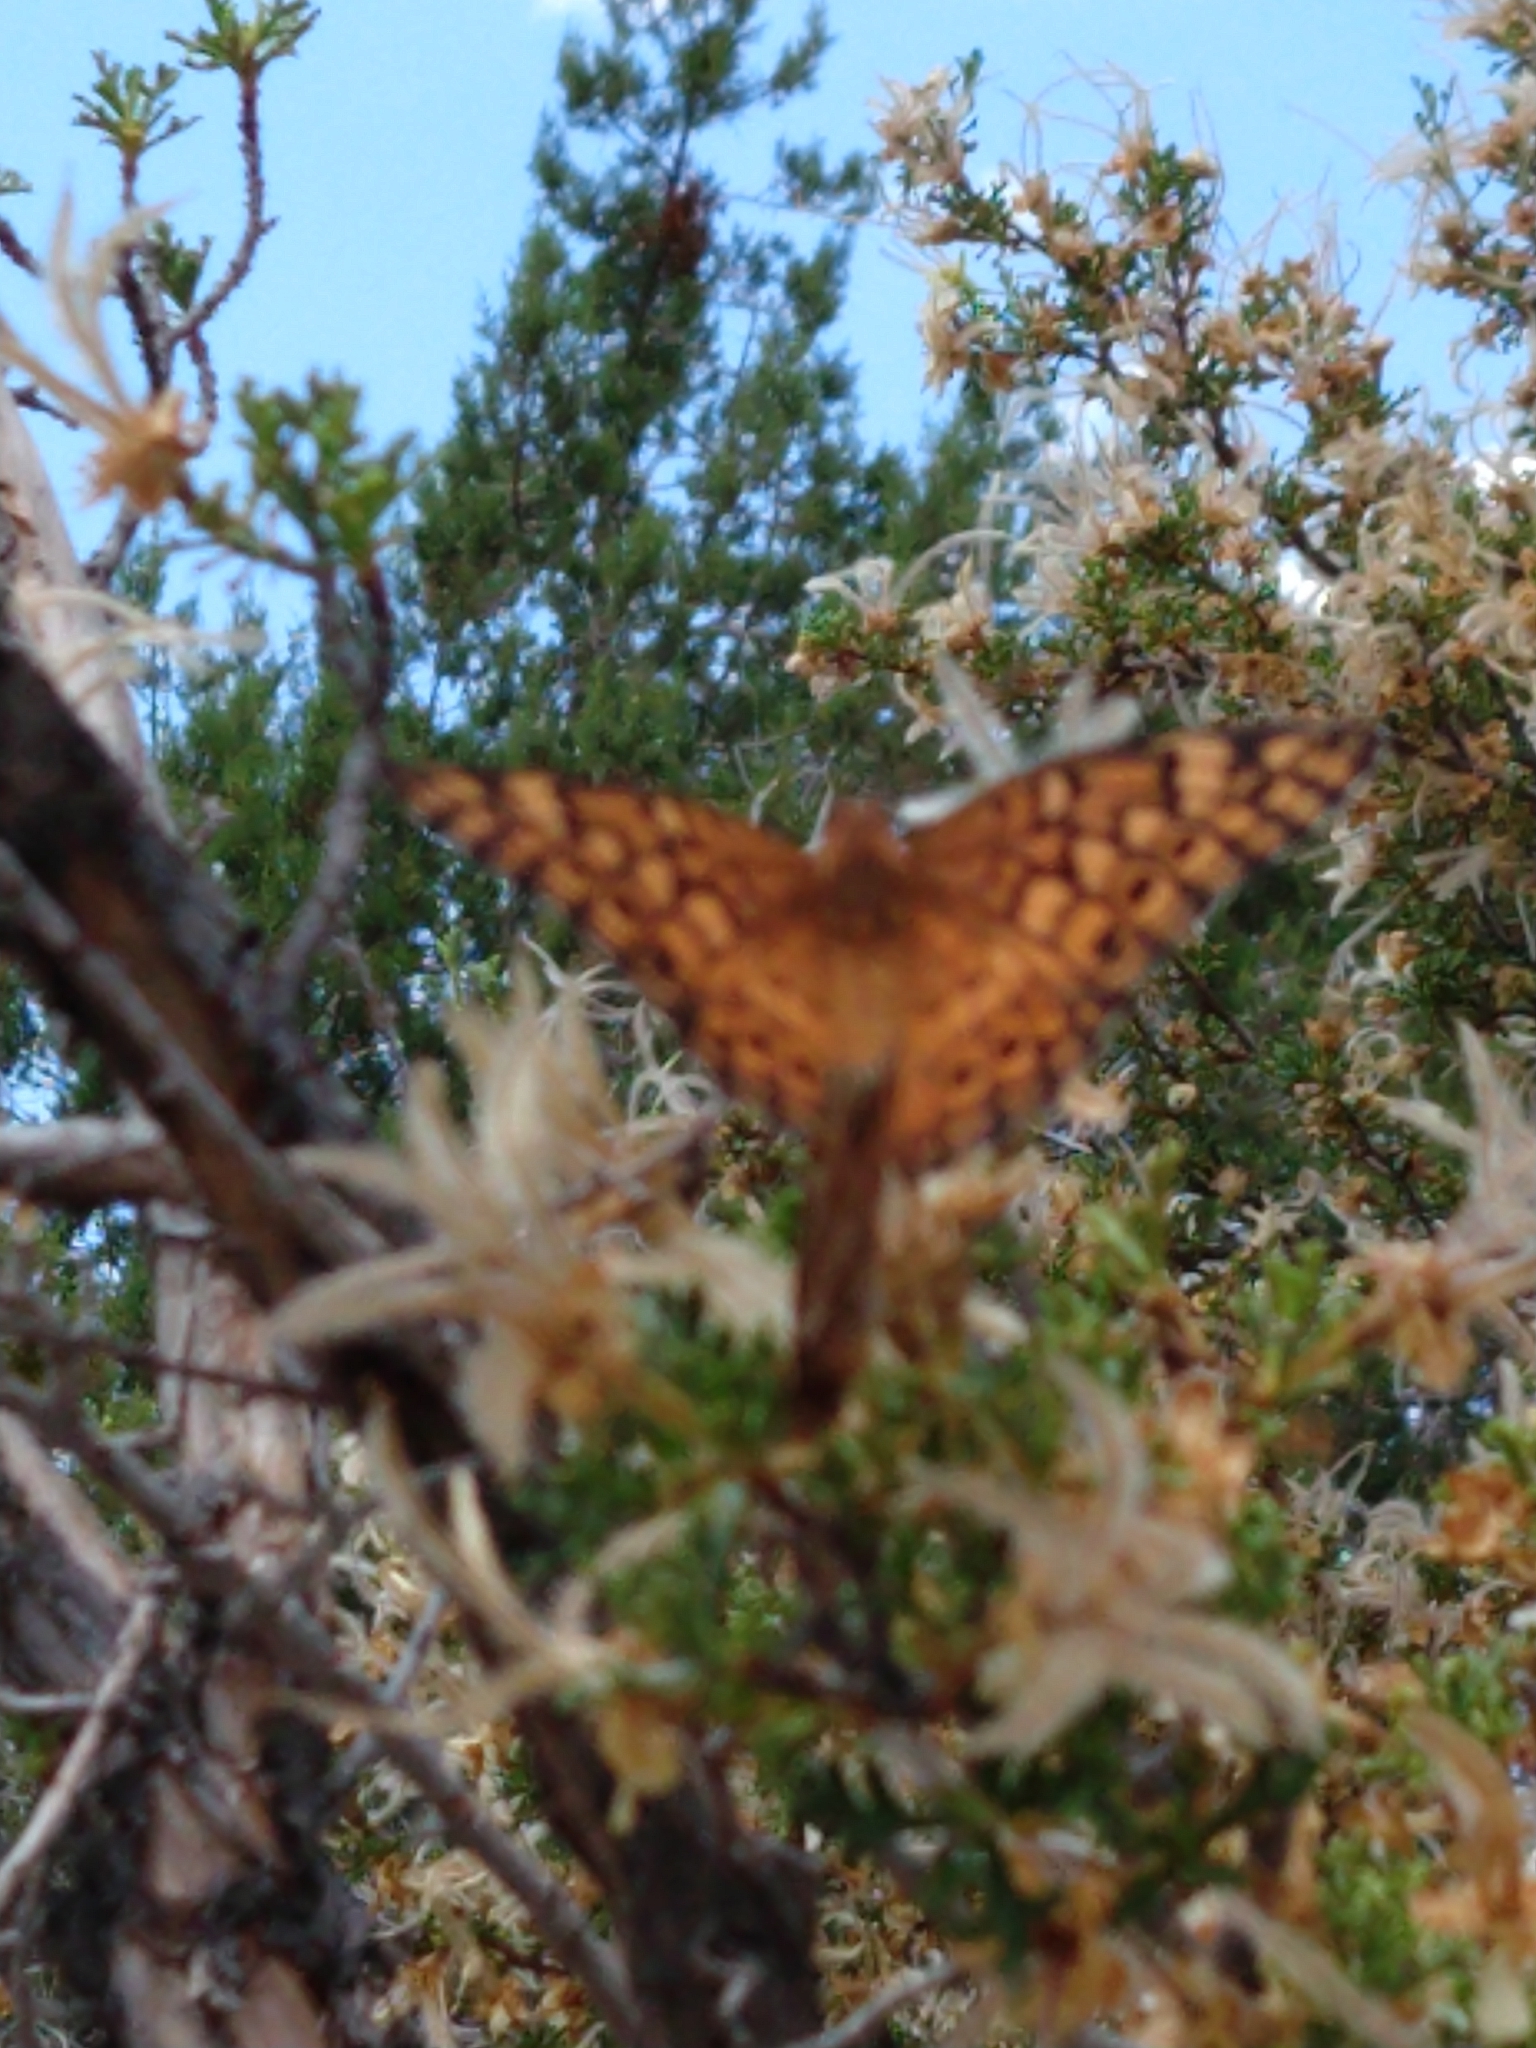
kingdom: Animalia
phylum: Arthropoda
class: Insecta
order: Lepidoptera
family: Nymphalidae
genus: Euptoieta
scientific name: Euptoieta claudia
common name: Variegated fritillary
